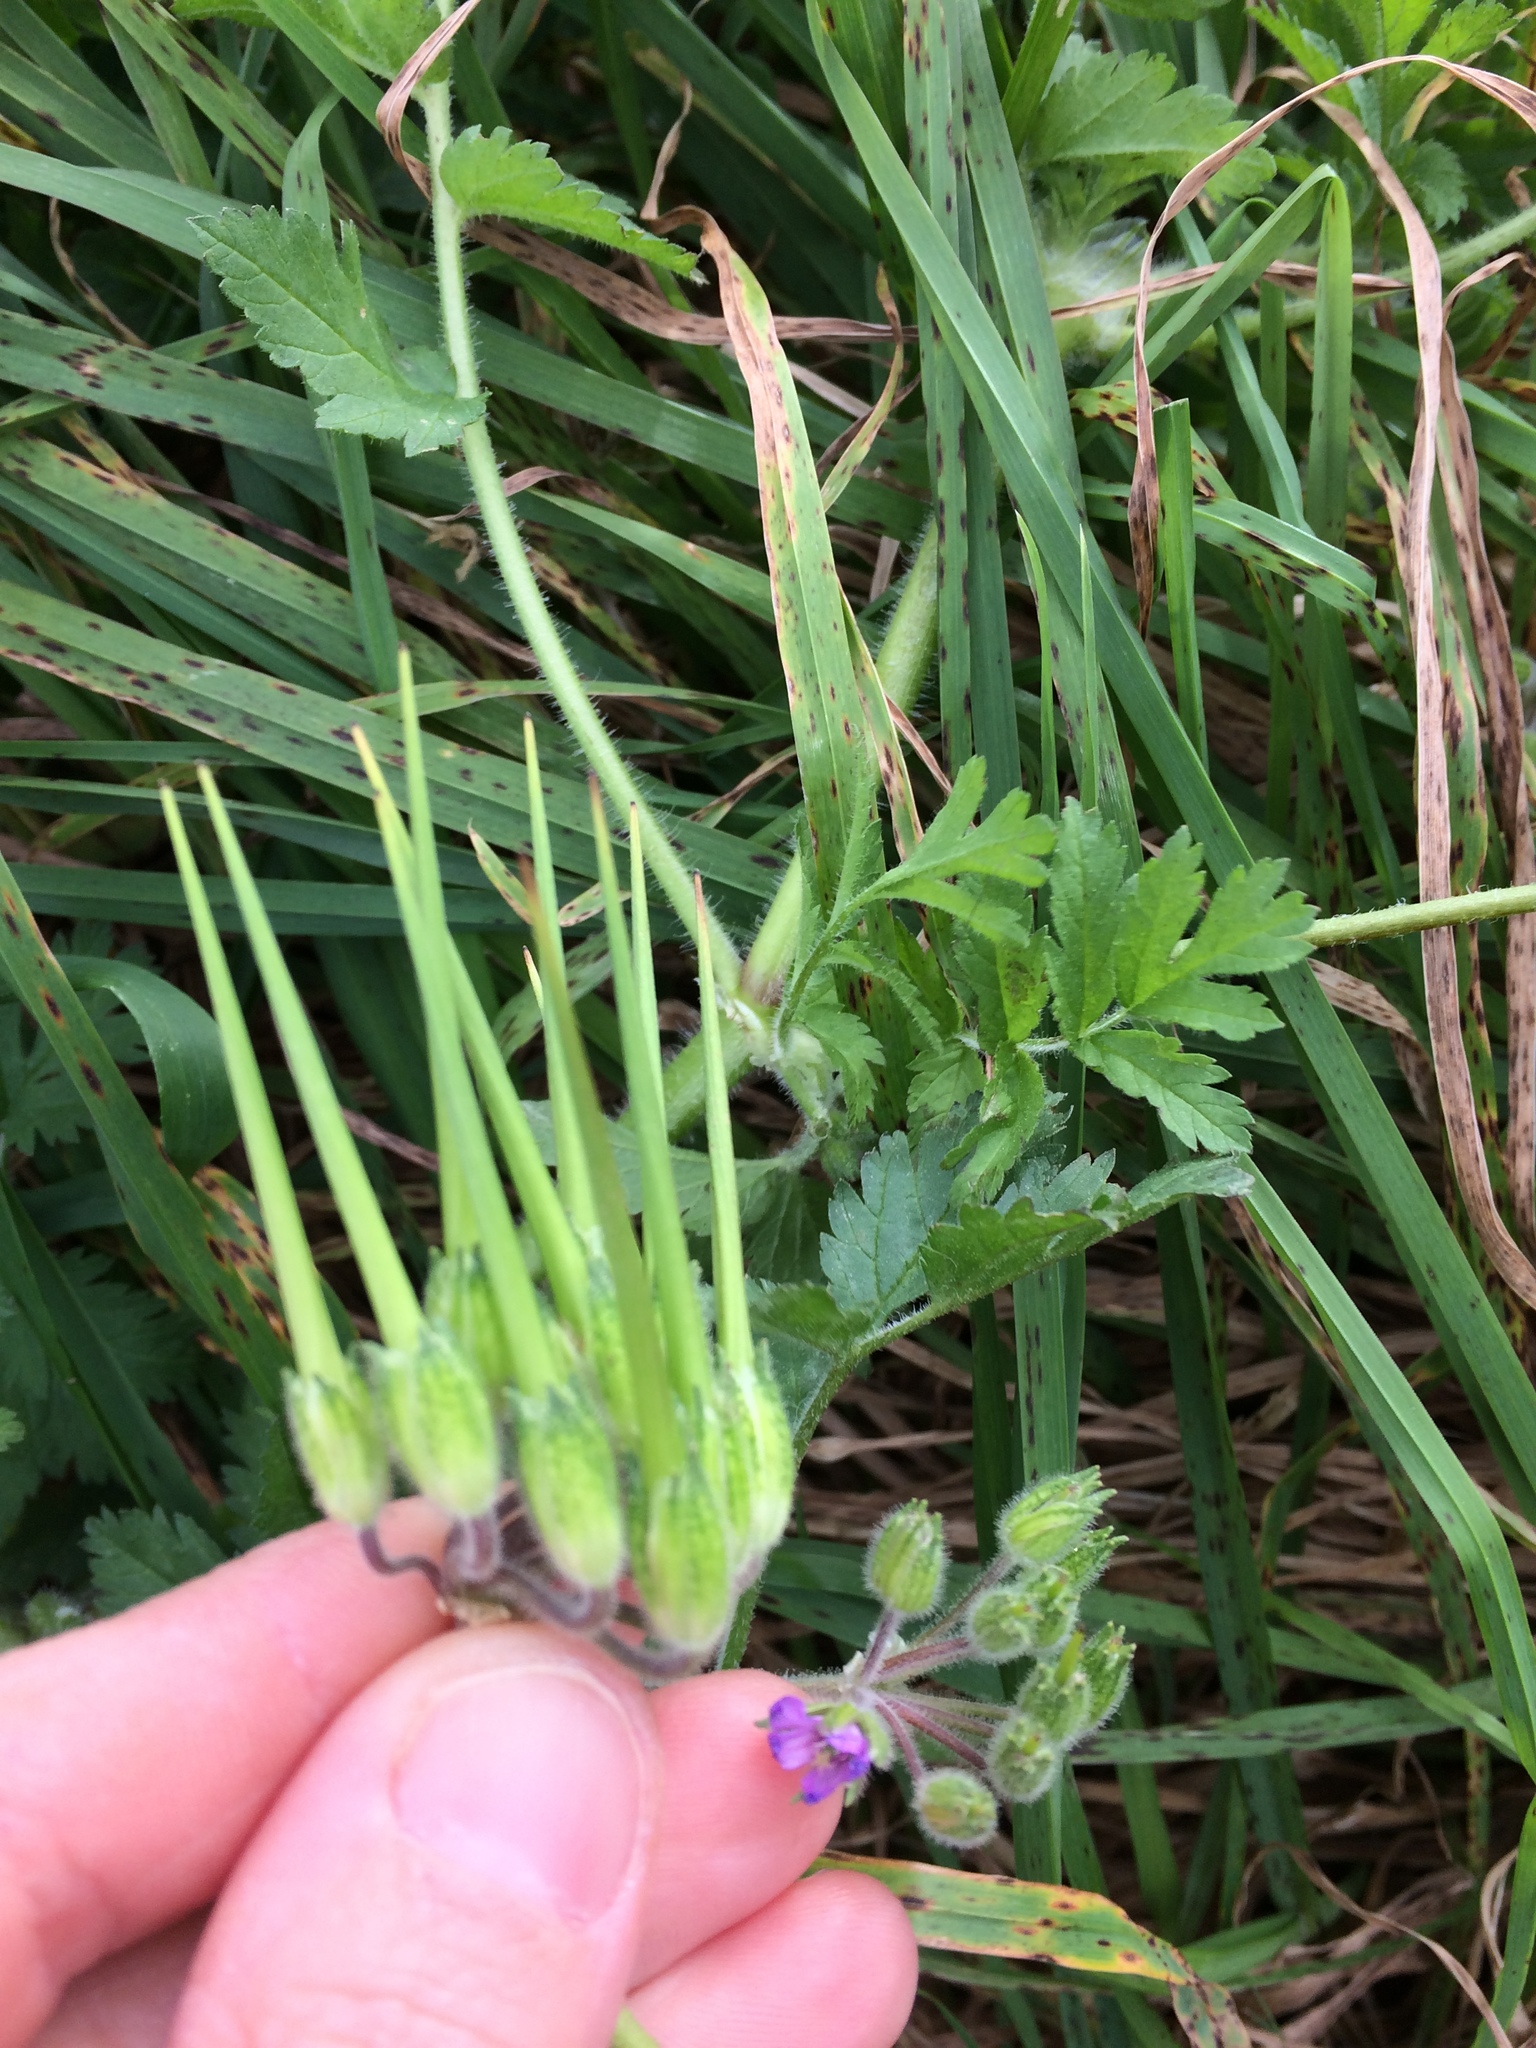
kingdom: Plantae
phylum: Tracheophyta
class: Magnoliopsida
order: Geraniales
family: Geraniaceae
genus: Erodium
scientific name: Erodium moschatum
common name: Musk stork's-bill
